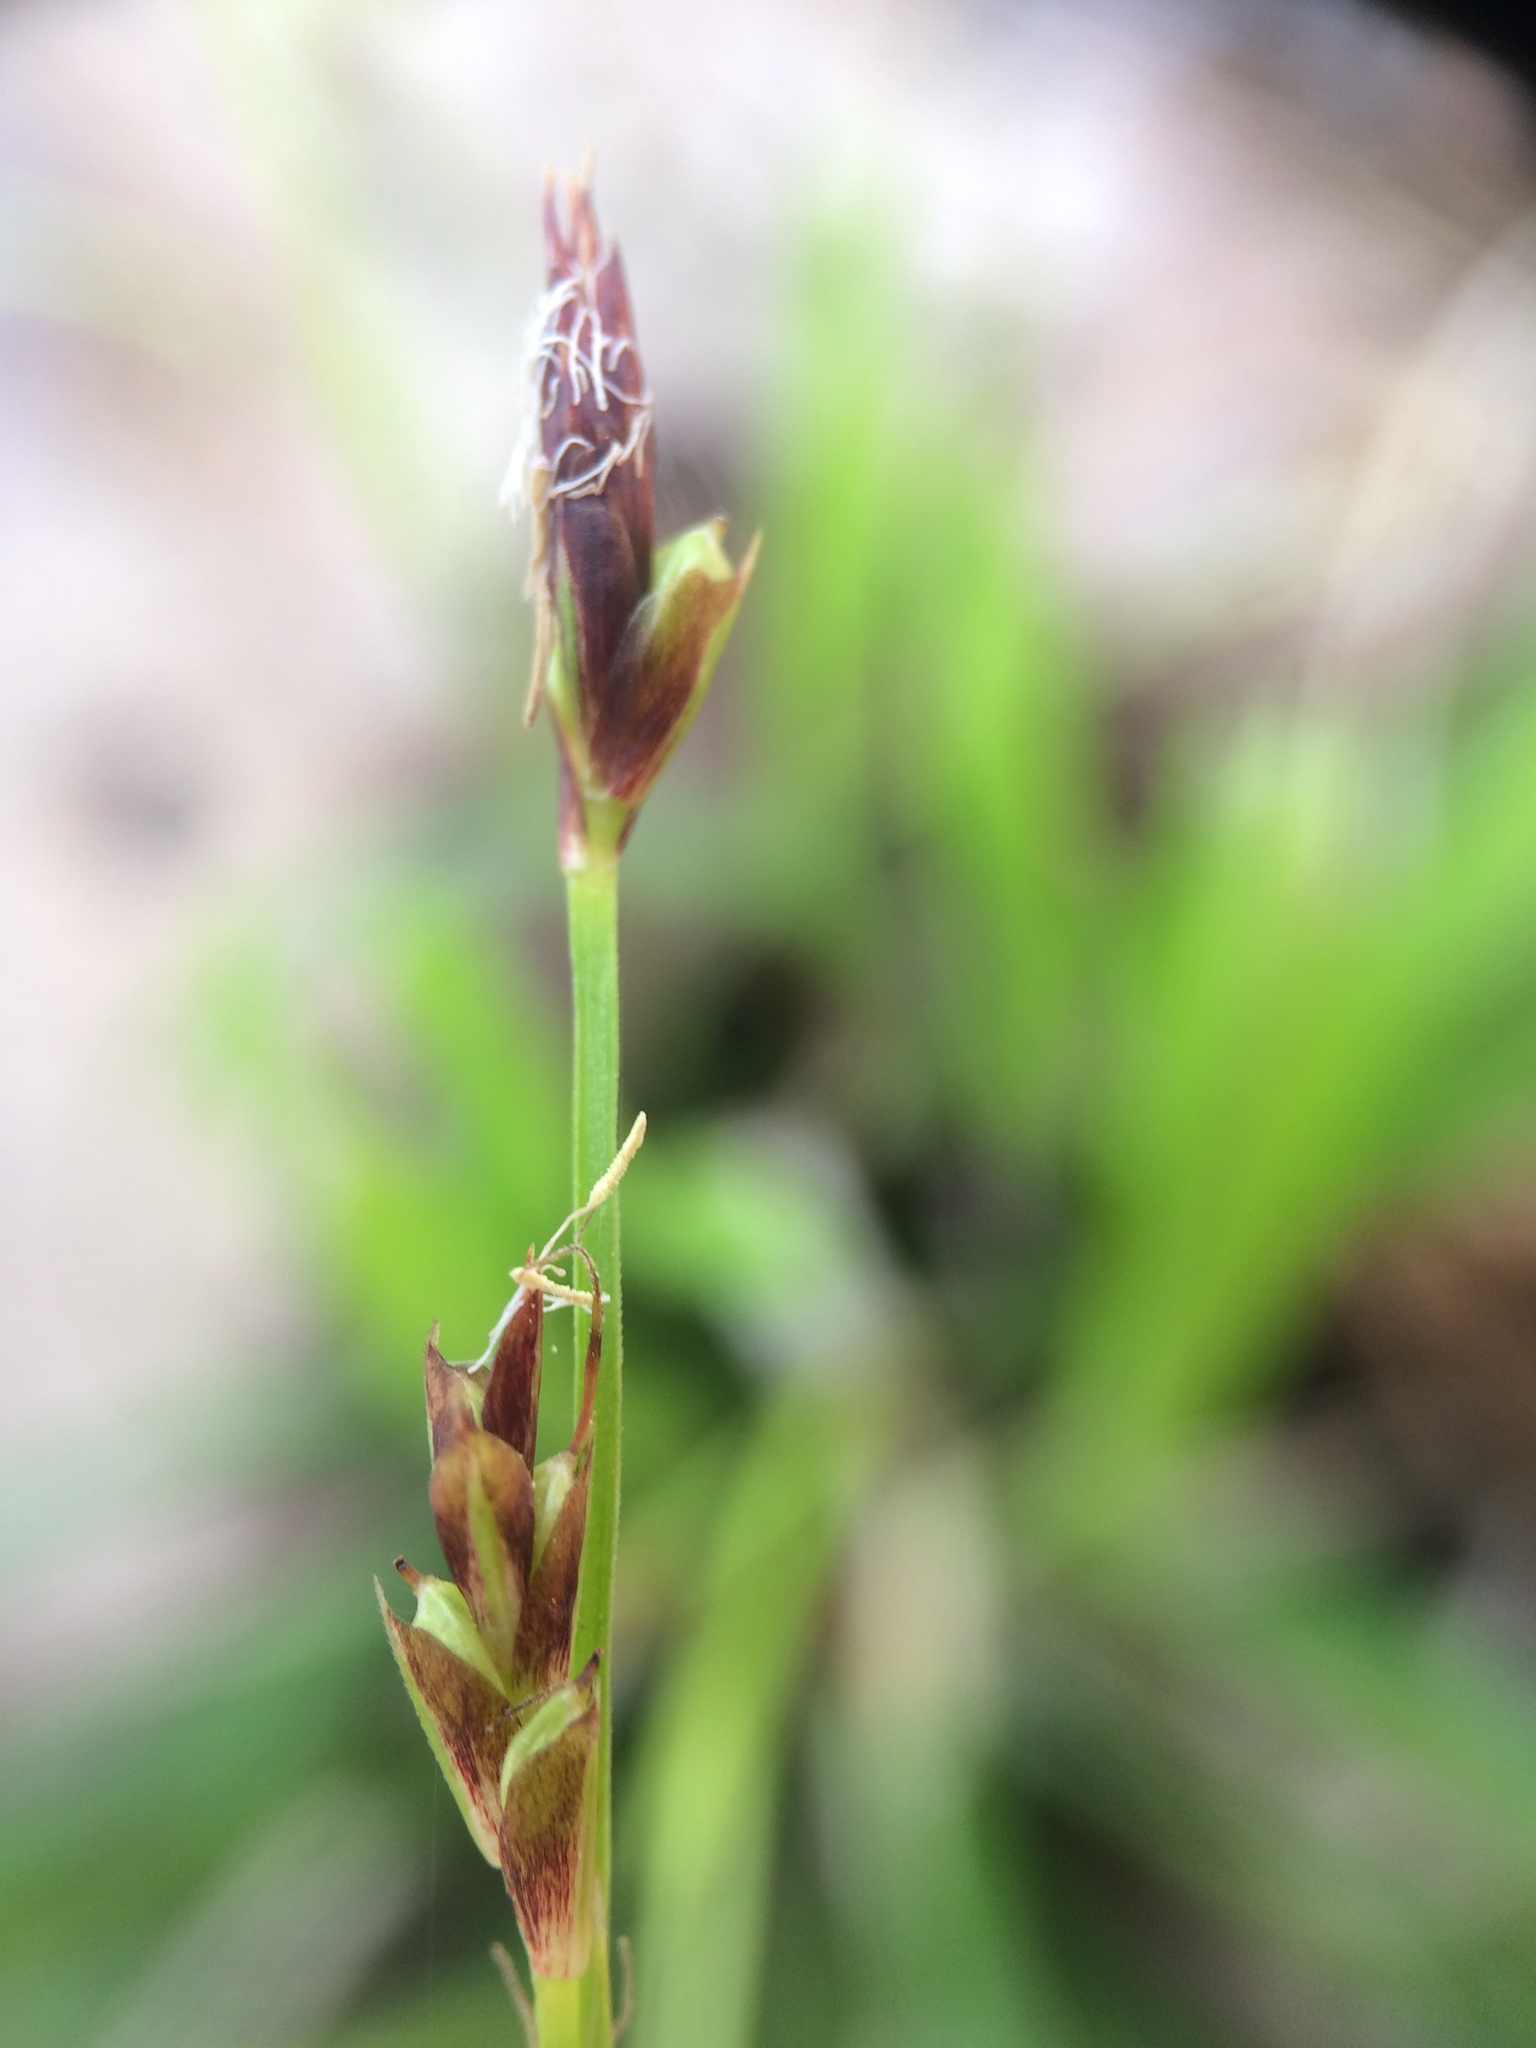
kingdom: Plantae
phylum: Tracheophyta
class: Liliopsida
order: Poales
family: Cyperaceae
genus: Carex
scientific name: Carex pedunculata
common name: Pedunculate sedge
